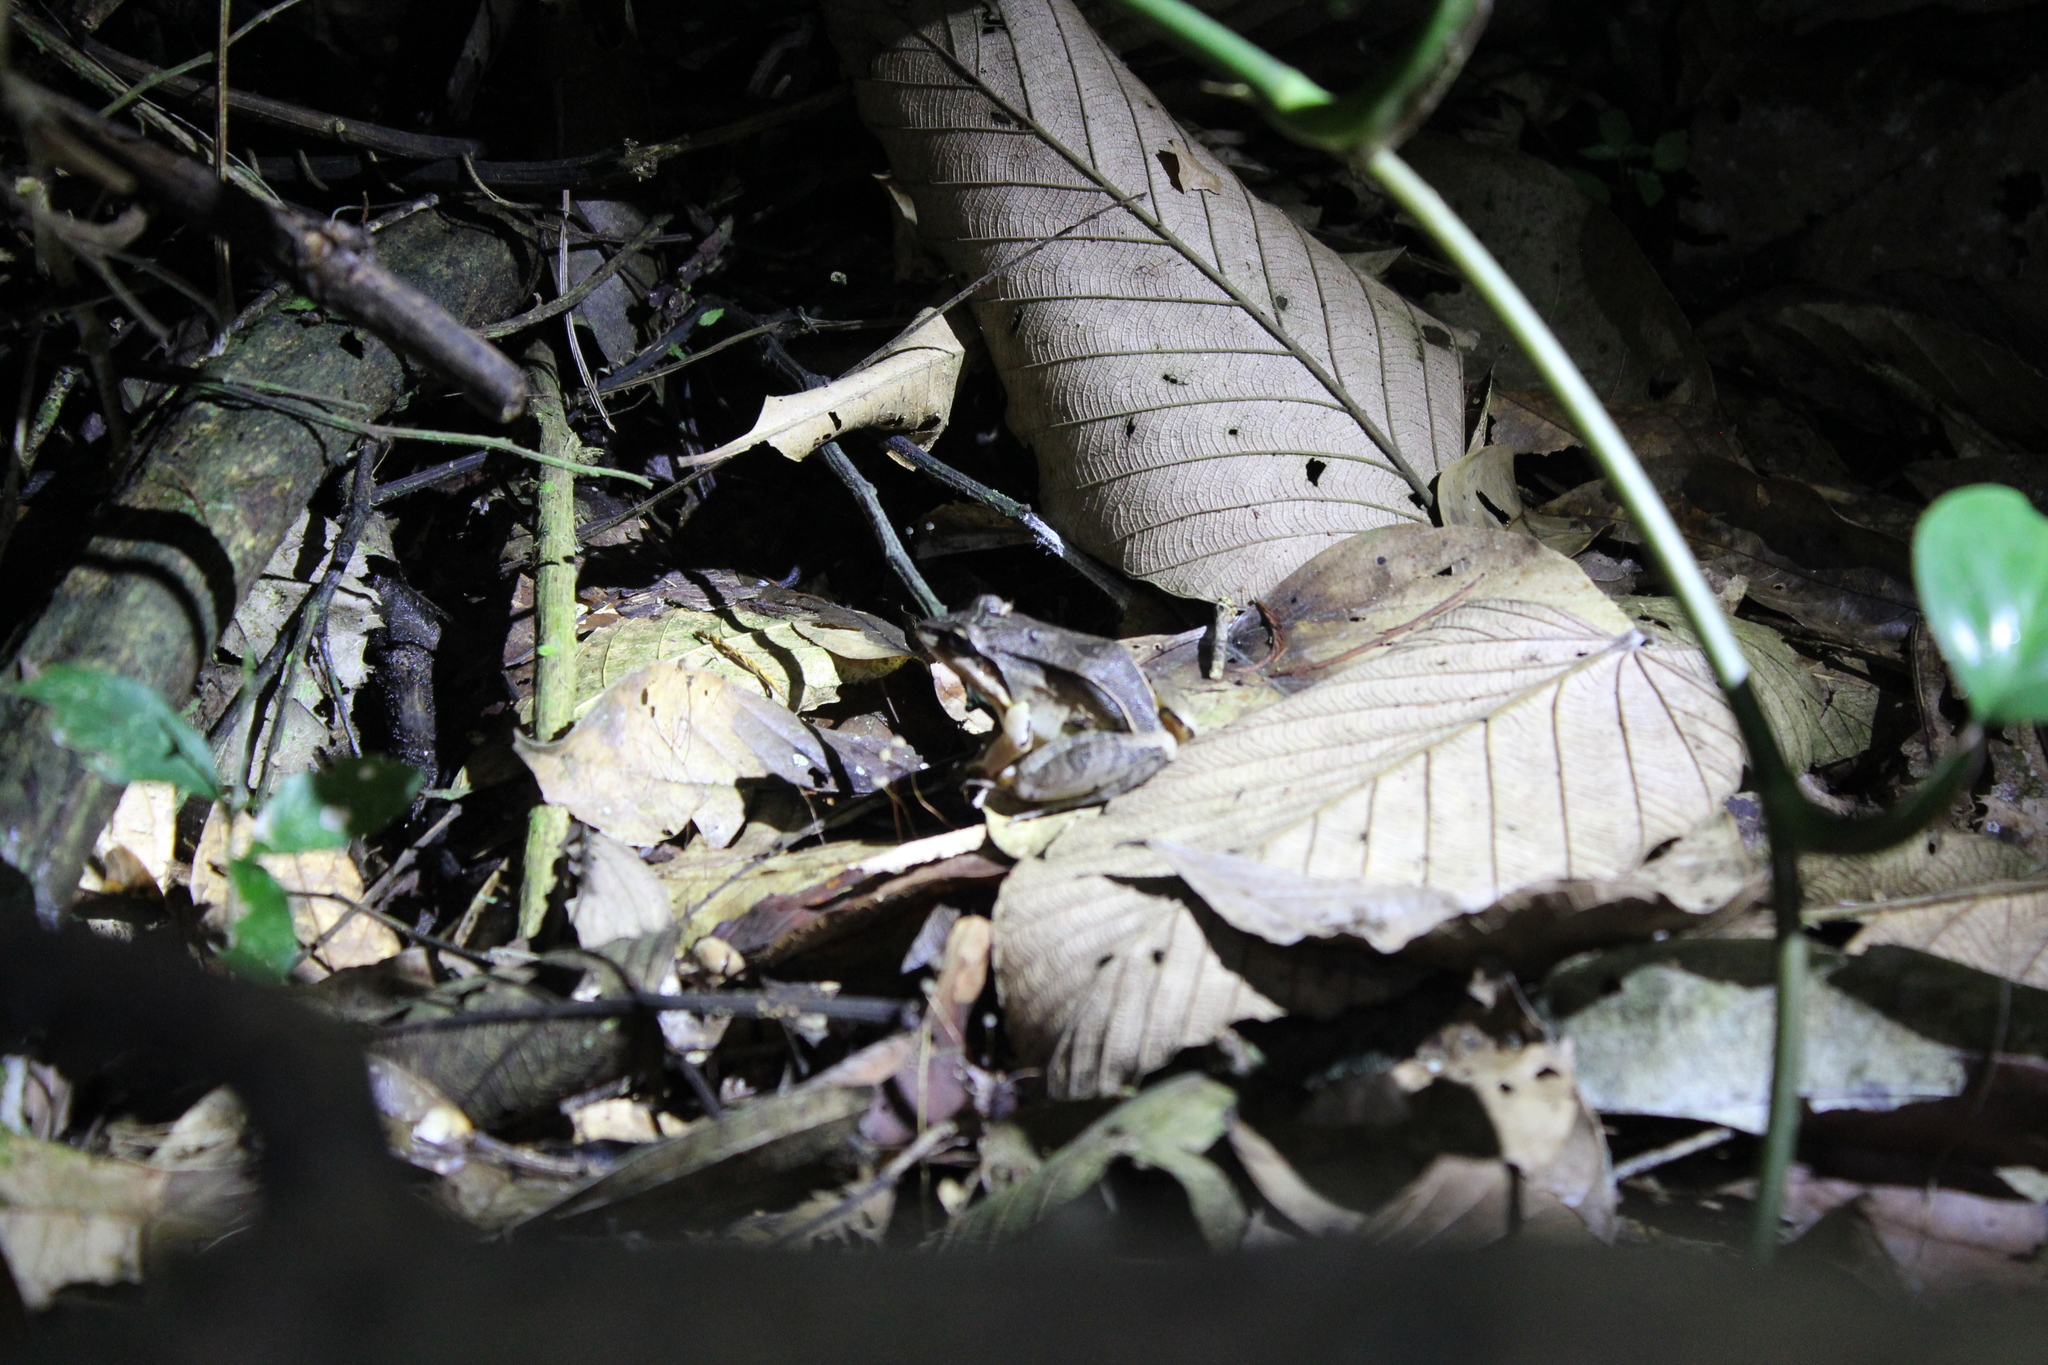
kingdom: Animalia
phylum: Chordata
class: Amphibia
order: Anura
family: Leptodactylidae
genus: Leptodactylus
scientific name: Leptodactylus didymus
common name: Madre de dios thin-toed frog
